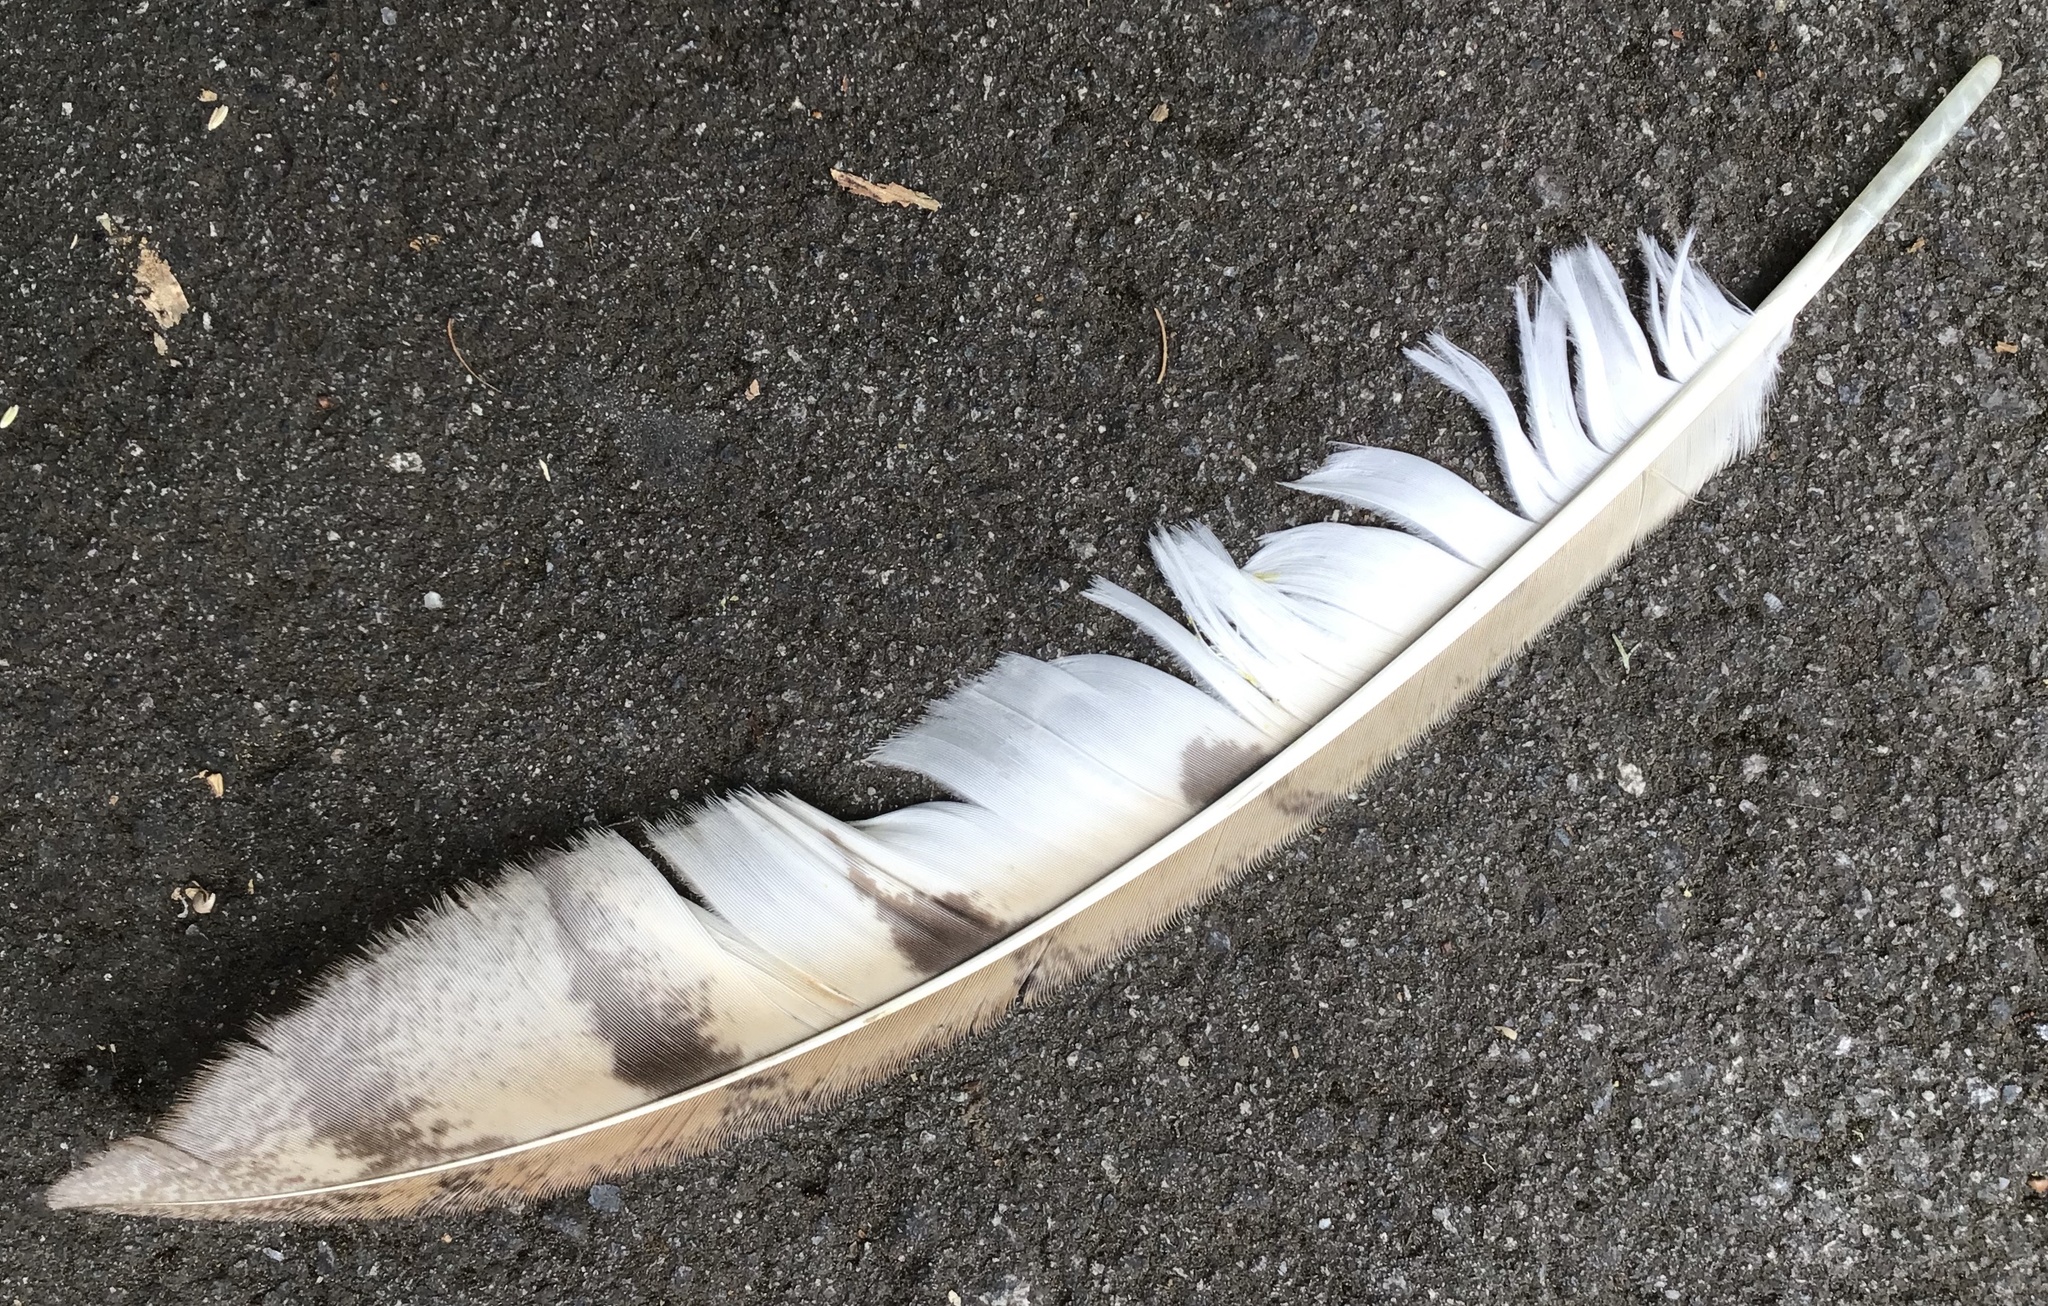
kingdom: Animalia
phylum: Chordata
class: Aves
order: Strigiformes
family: Tytonidae
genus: Tyto
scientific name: Tyto alba
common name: Barn owl
